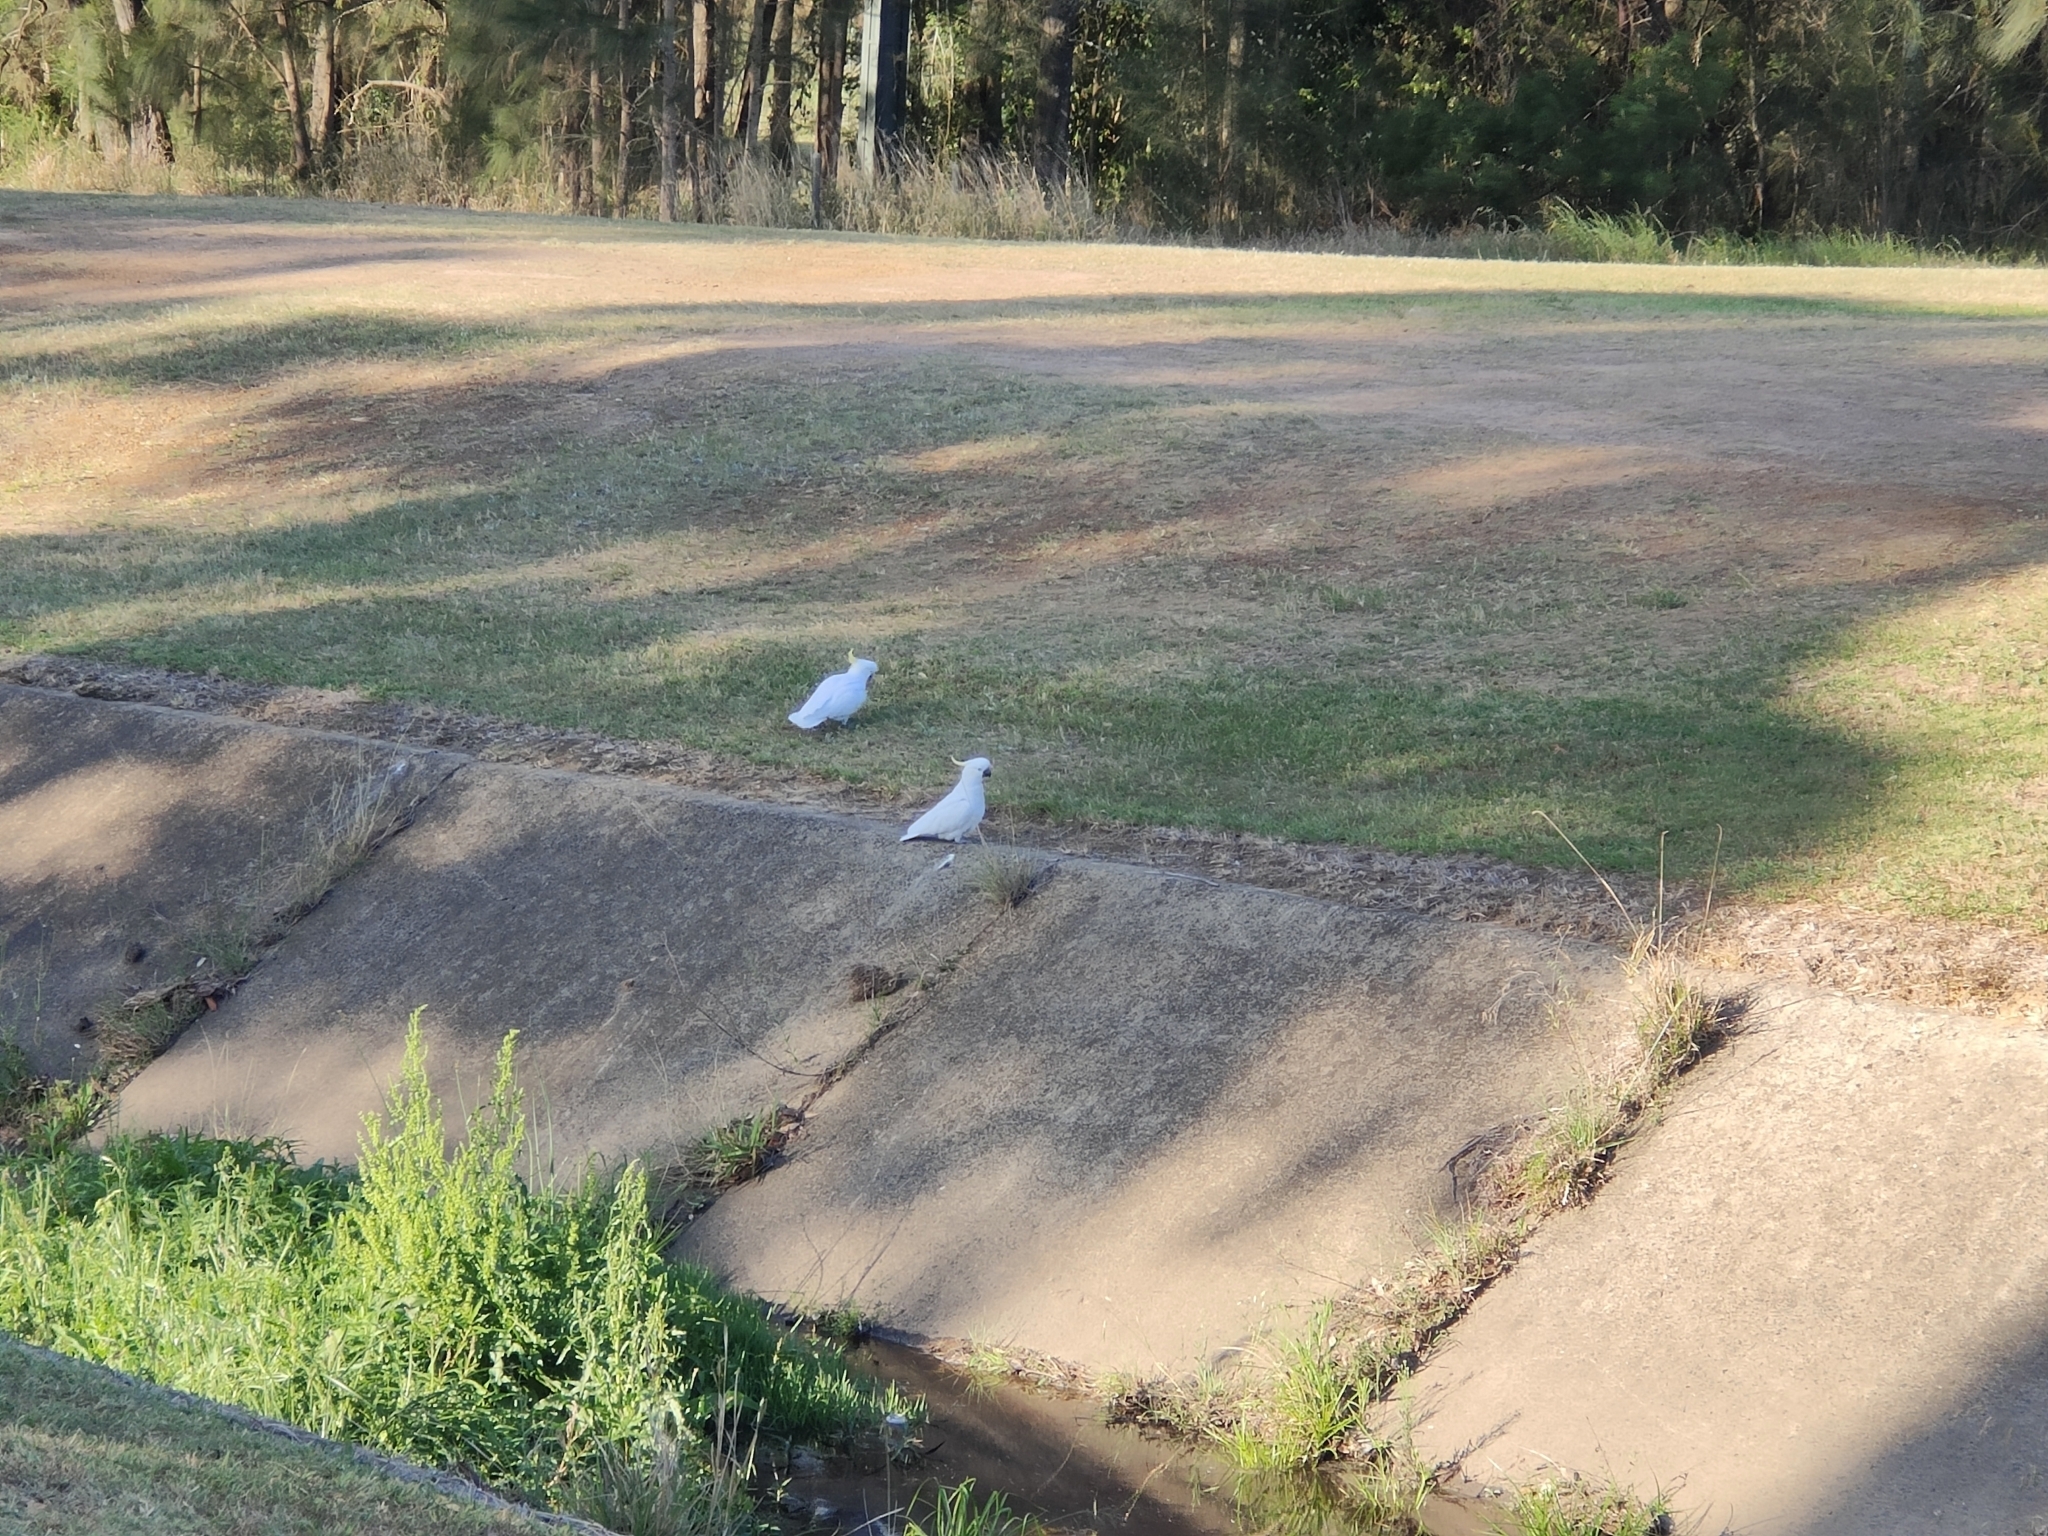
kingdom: Animalia
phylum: Chordata
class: Aves
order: Psittaciformes
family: Psittacidae
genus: Cacatua
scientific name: Cacatua galerita
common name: Sulphur-crested cockatoo
